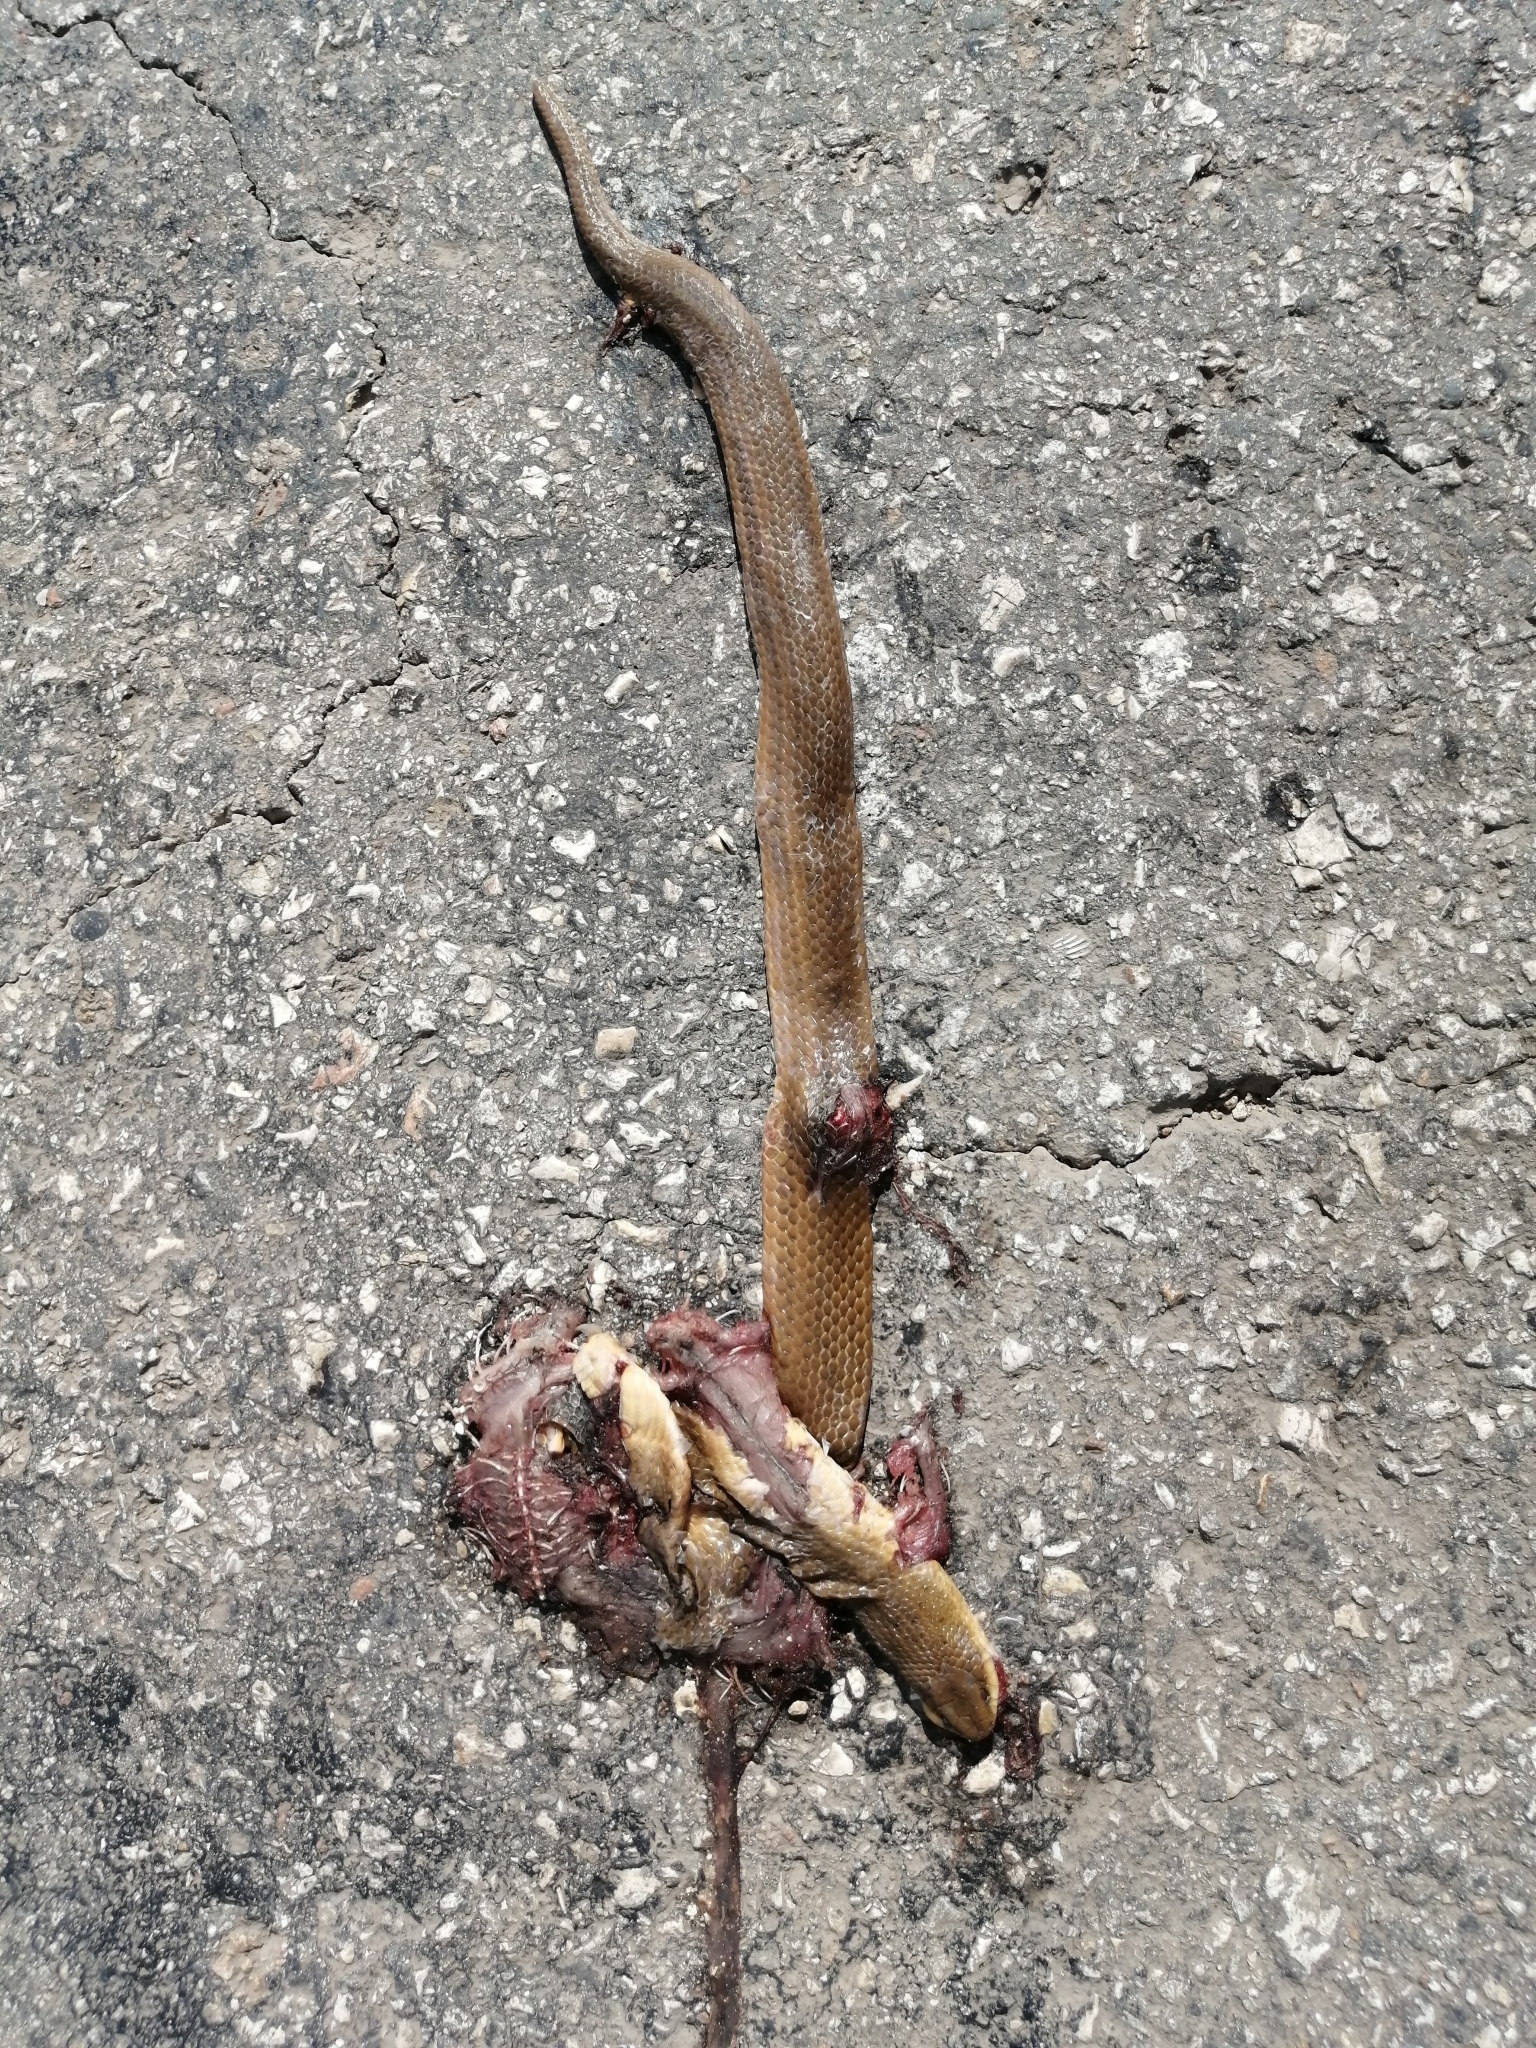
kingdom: Animalia
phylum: Chordata
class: Squamata
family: Colubridae
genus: Stenorrhina
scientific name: Stenorrhina freminvillei
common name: Blood snake
